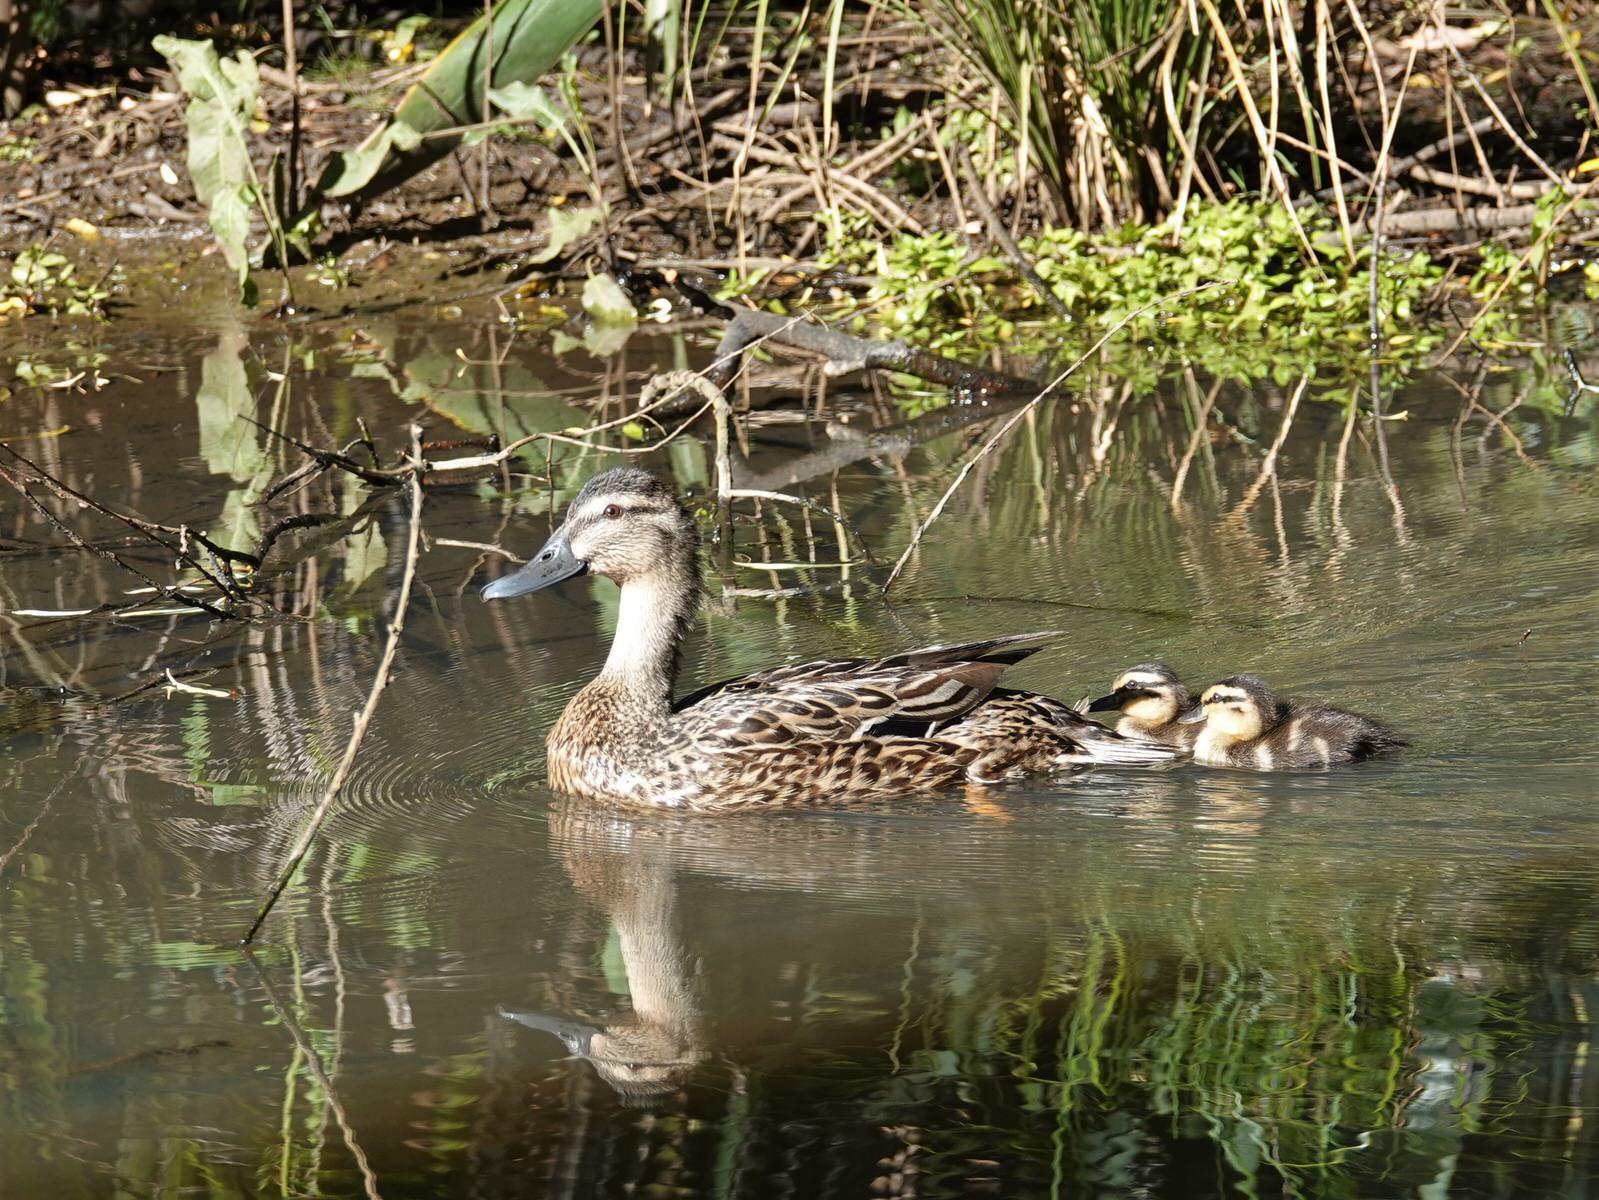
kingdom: Animalia
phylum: Chordata
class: Aves
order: Anseriformes
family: Anatidae
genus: Anas
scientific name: Anas
